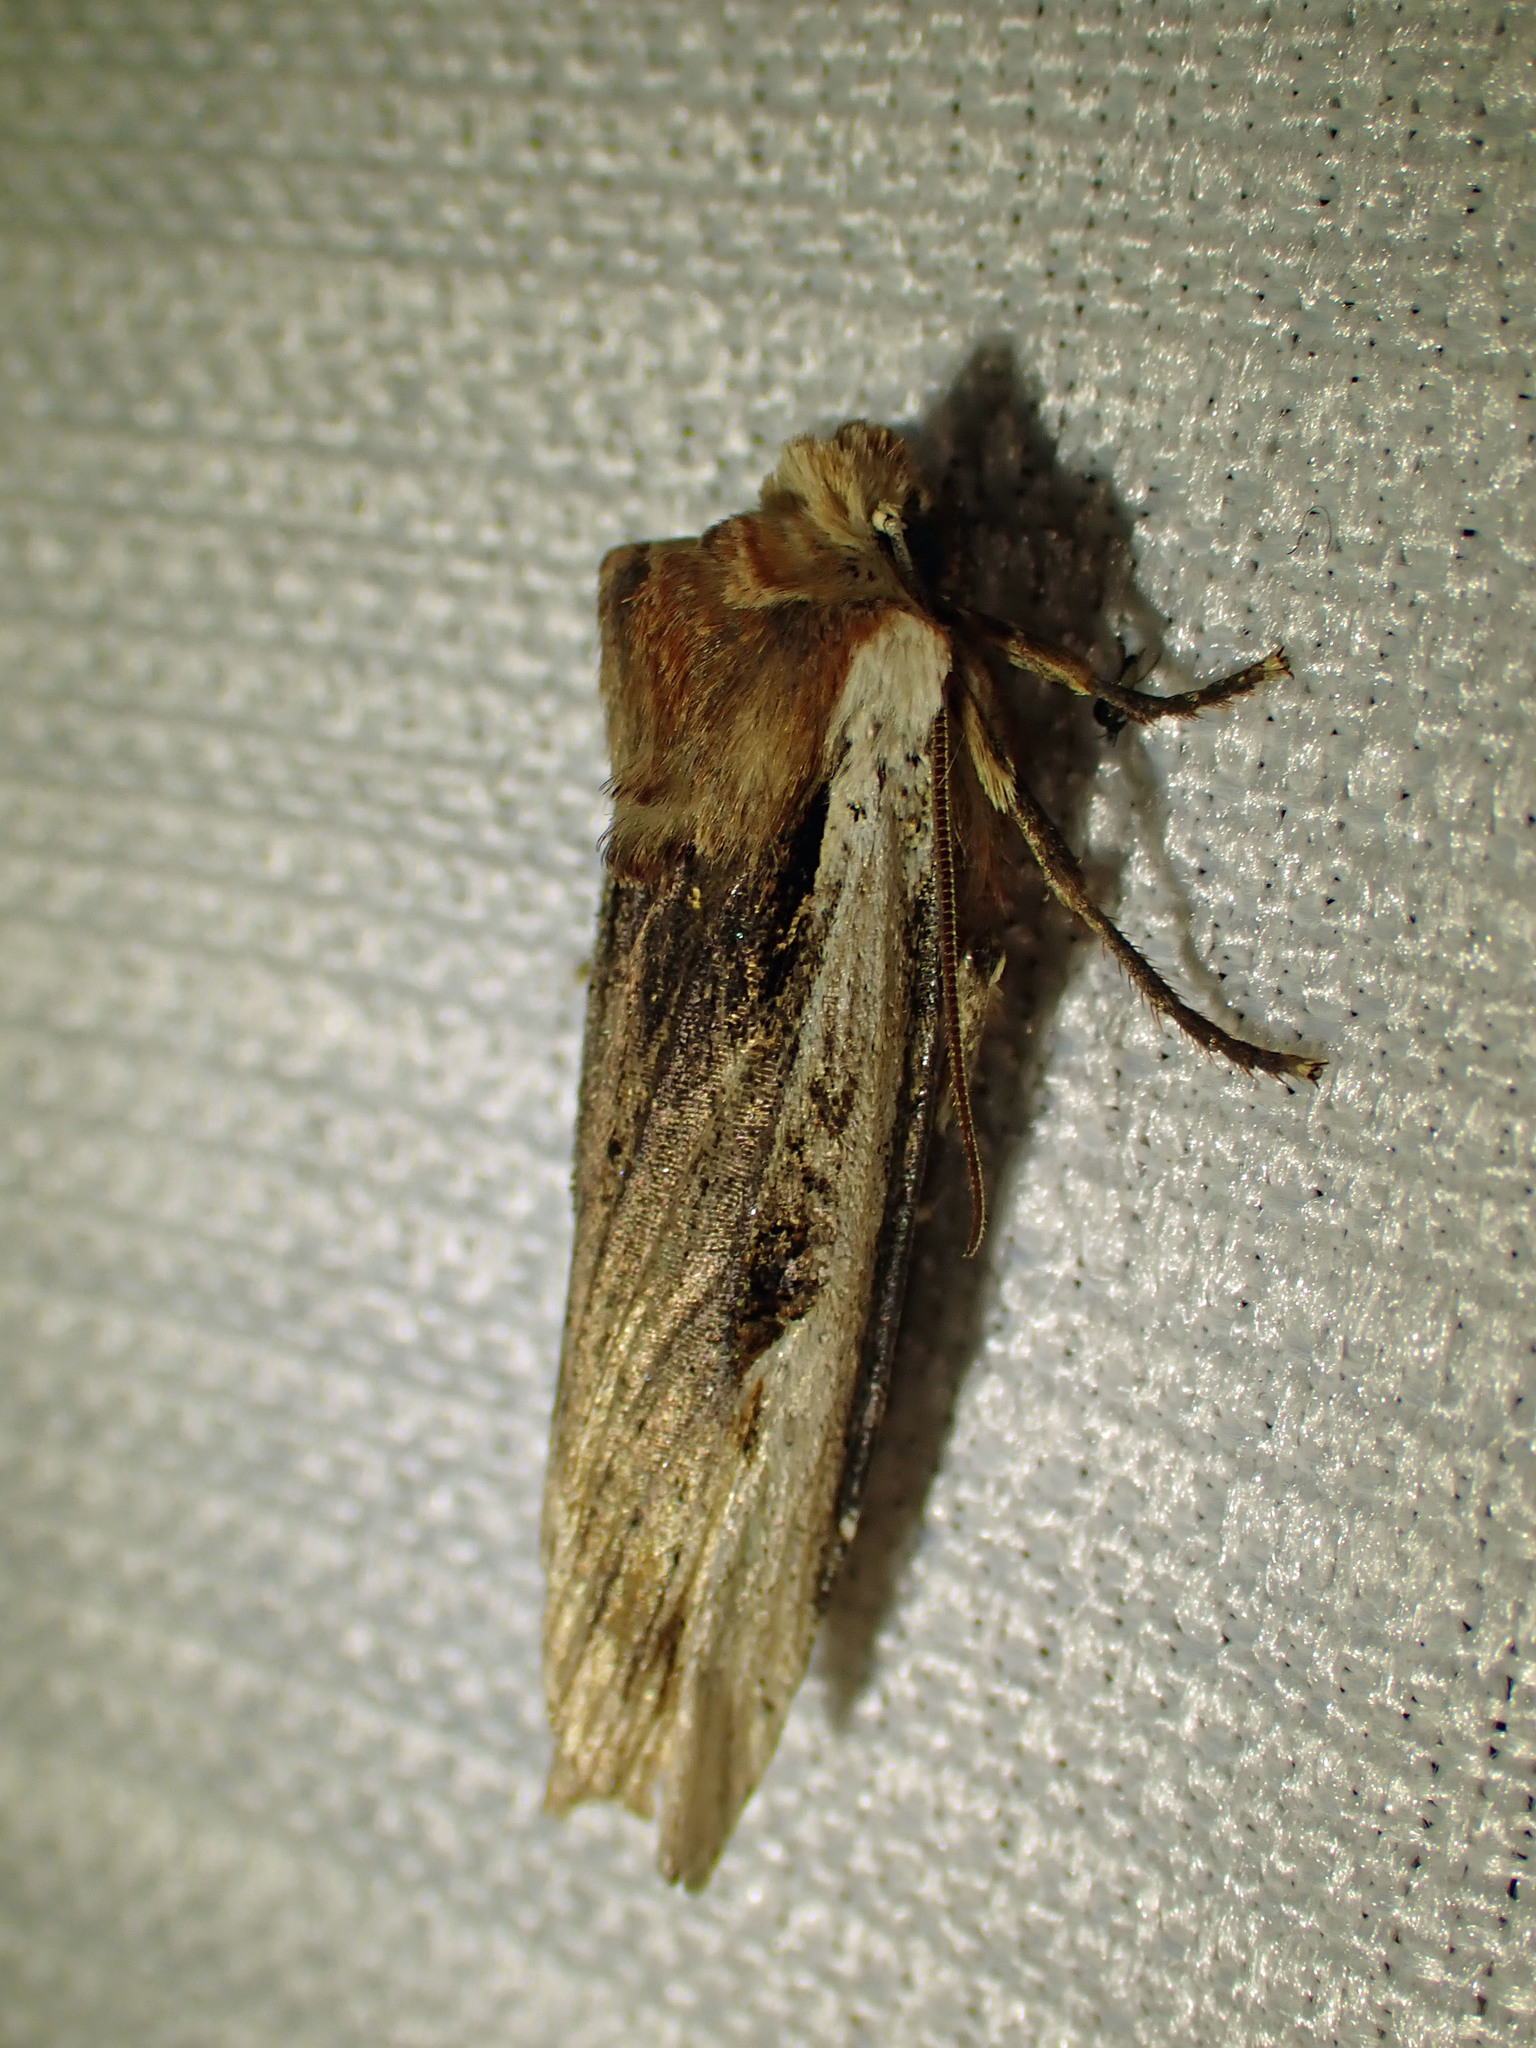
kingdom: Animalia
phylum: Arthropoda
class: Insecta
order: Lepidoptera
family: Noctuidae
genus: Xylena
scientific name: Xylena curvimacula
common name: Dot-and-dash swordgrass moth
